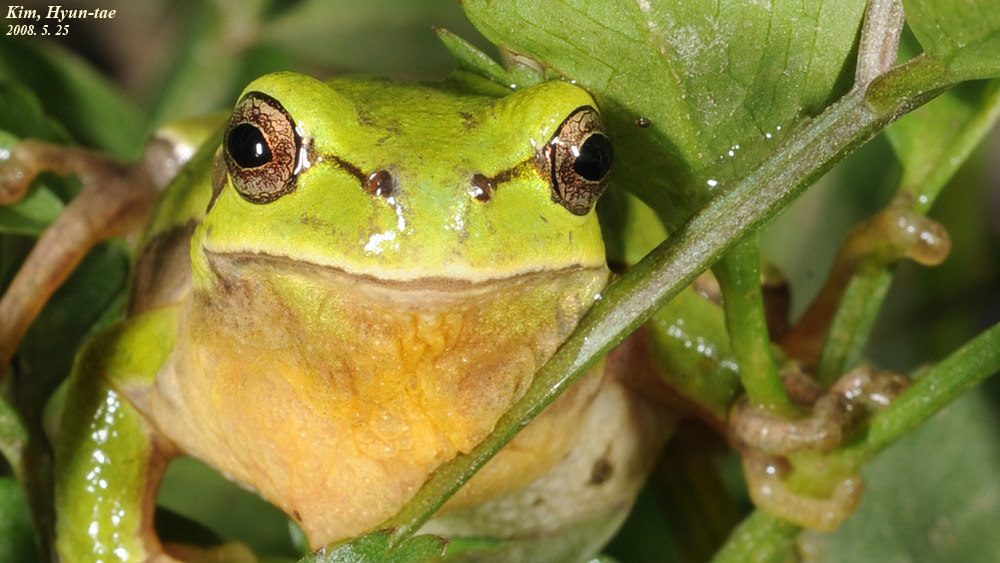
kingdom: Animalia
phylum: Chordata
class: Amphibia
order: Anura
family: Hylidae
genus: Dryophytes
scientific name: Dryophytes immaculatus
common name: North china treefrog
